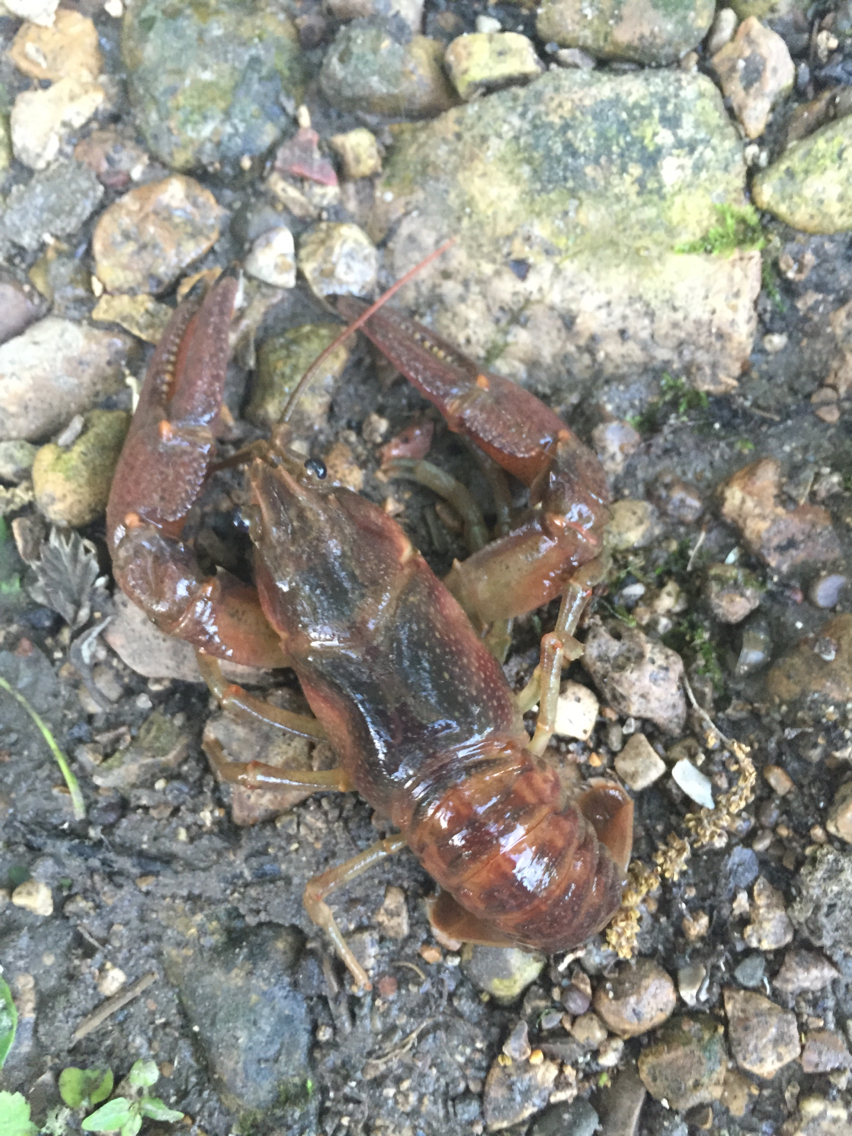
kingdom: Animalia
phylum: Arthropoda
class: Malacostraca
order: Decapoda
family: Cambaridae
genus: Faxonius
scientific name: Faxonius rusticus
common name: Rusty crayfish
